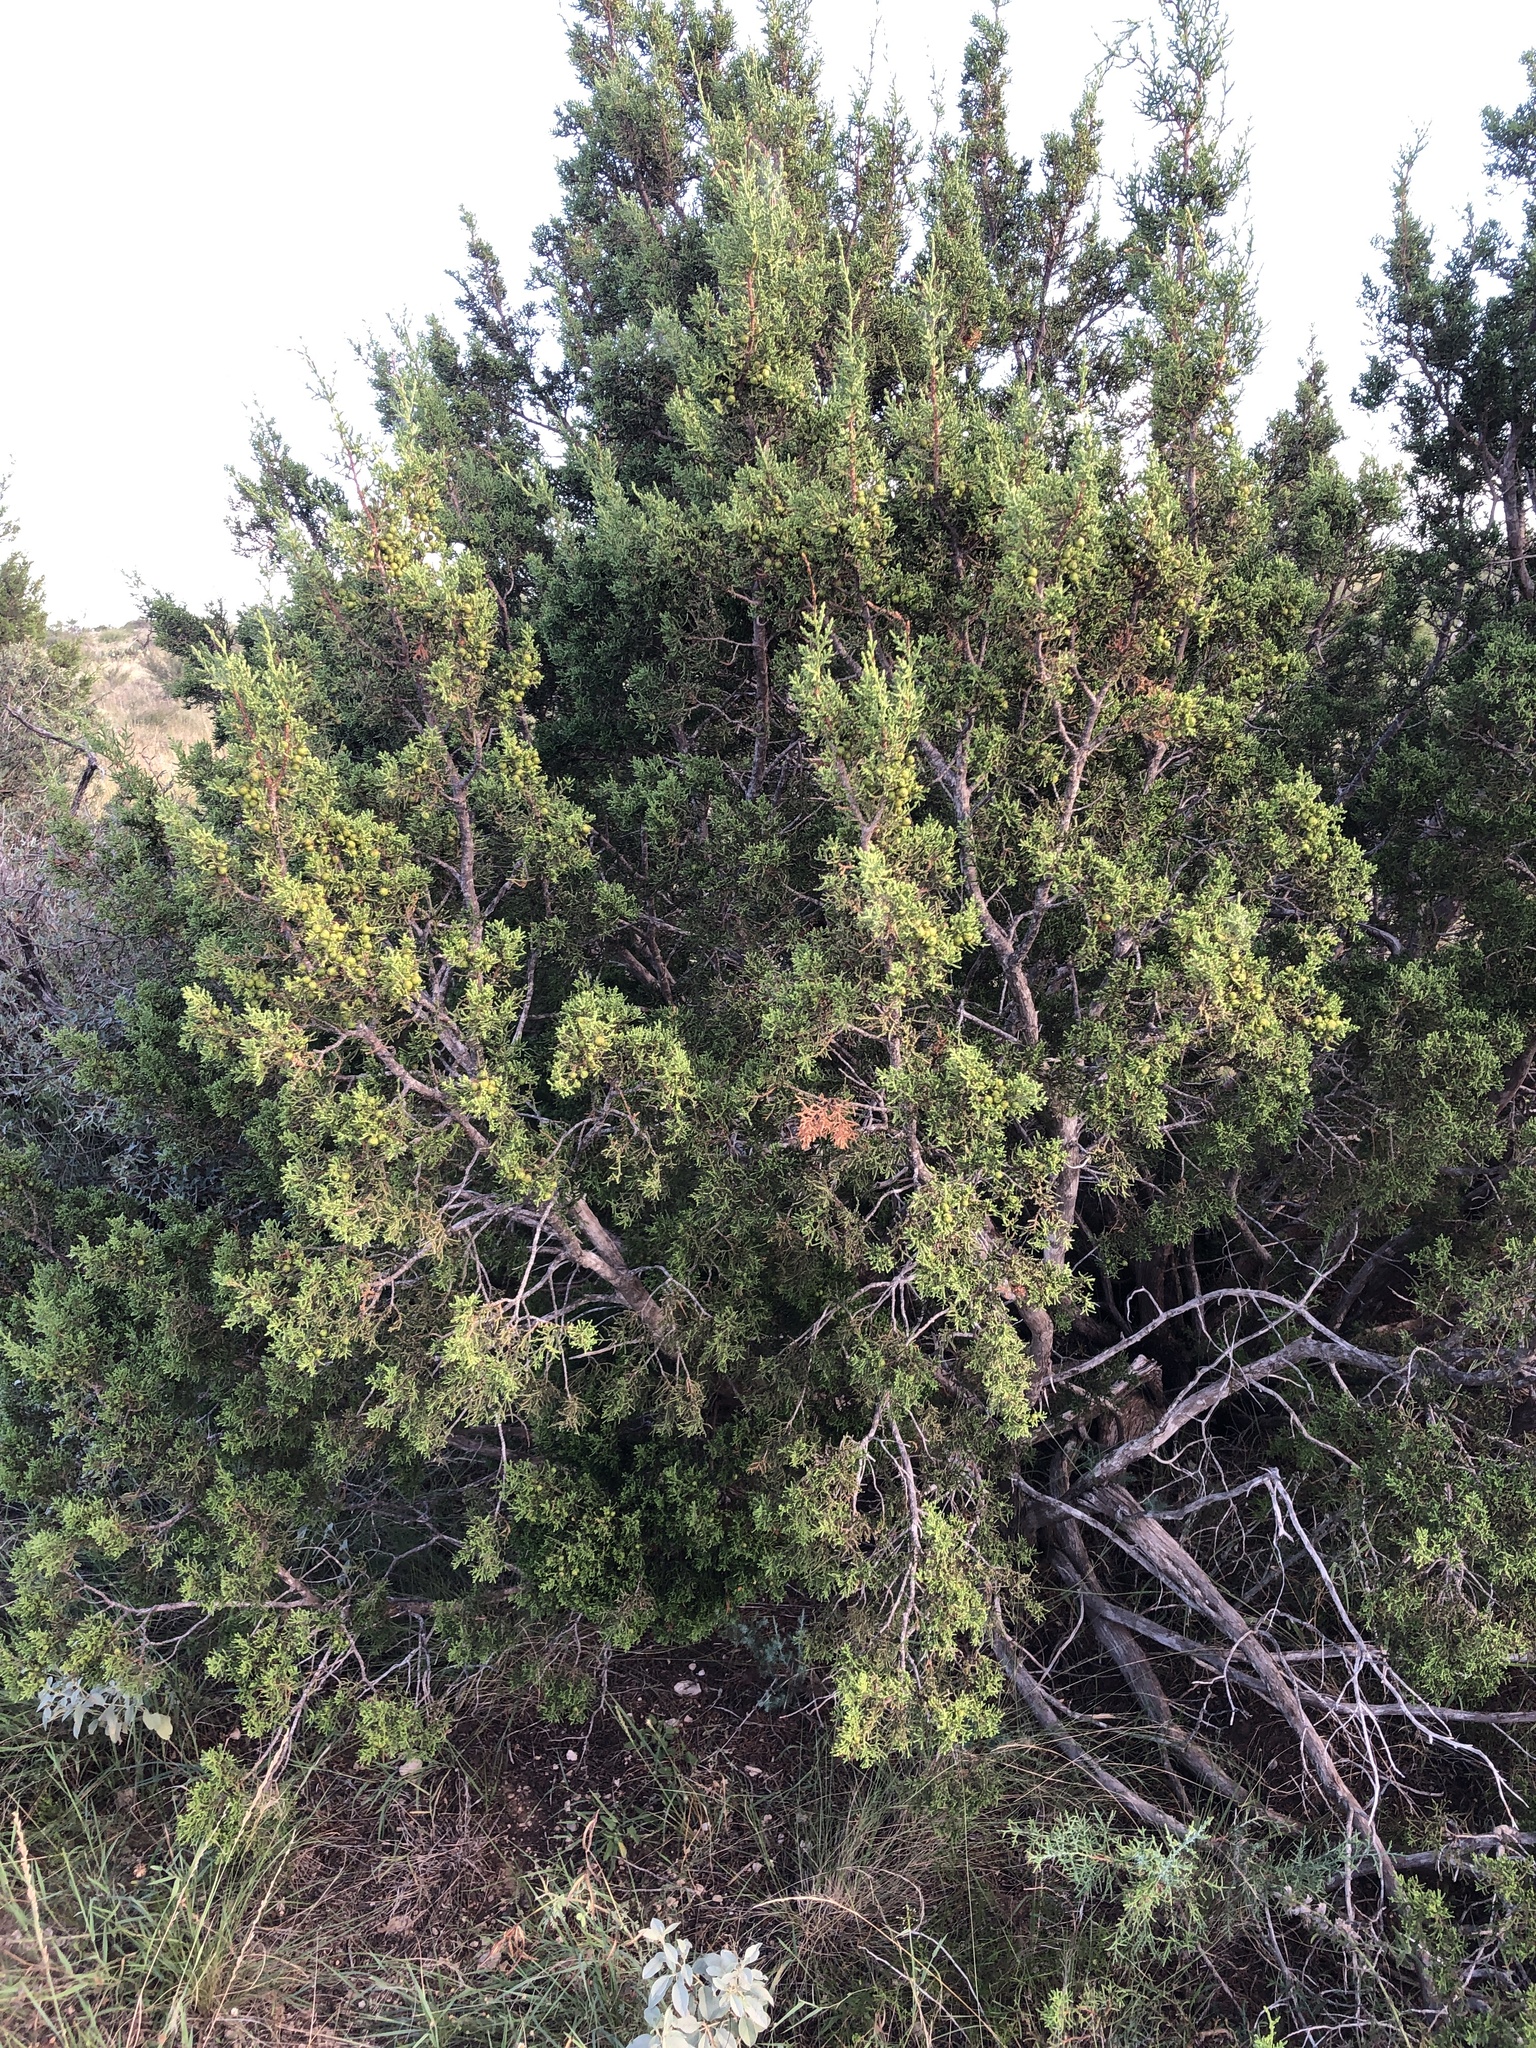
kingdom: Plantae
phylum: Tracheophyta
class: Pinopsida
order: Pinales
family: Cupressaceae
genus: Juniperus
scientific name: Juniperus pinchotii
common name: Pinchot juniper
